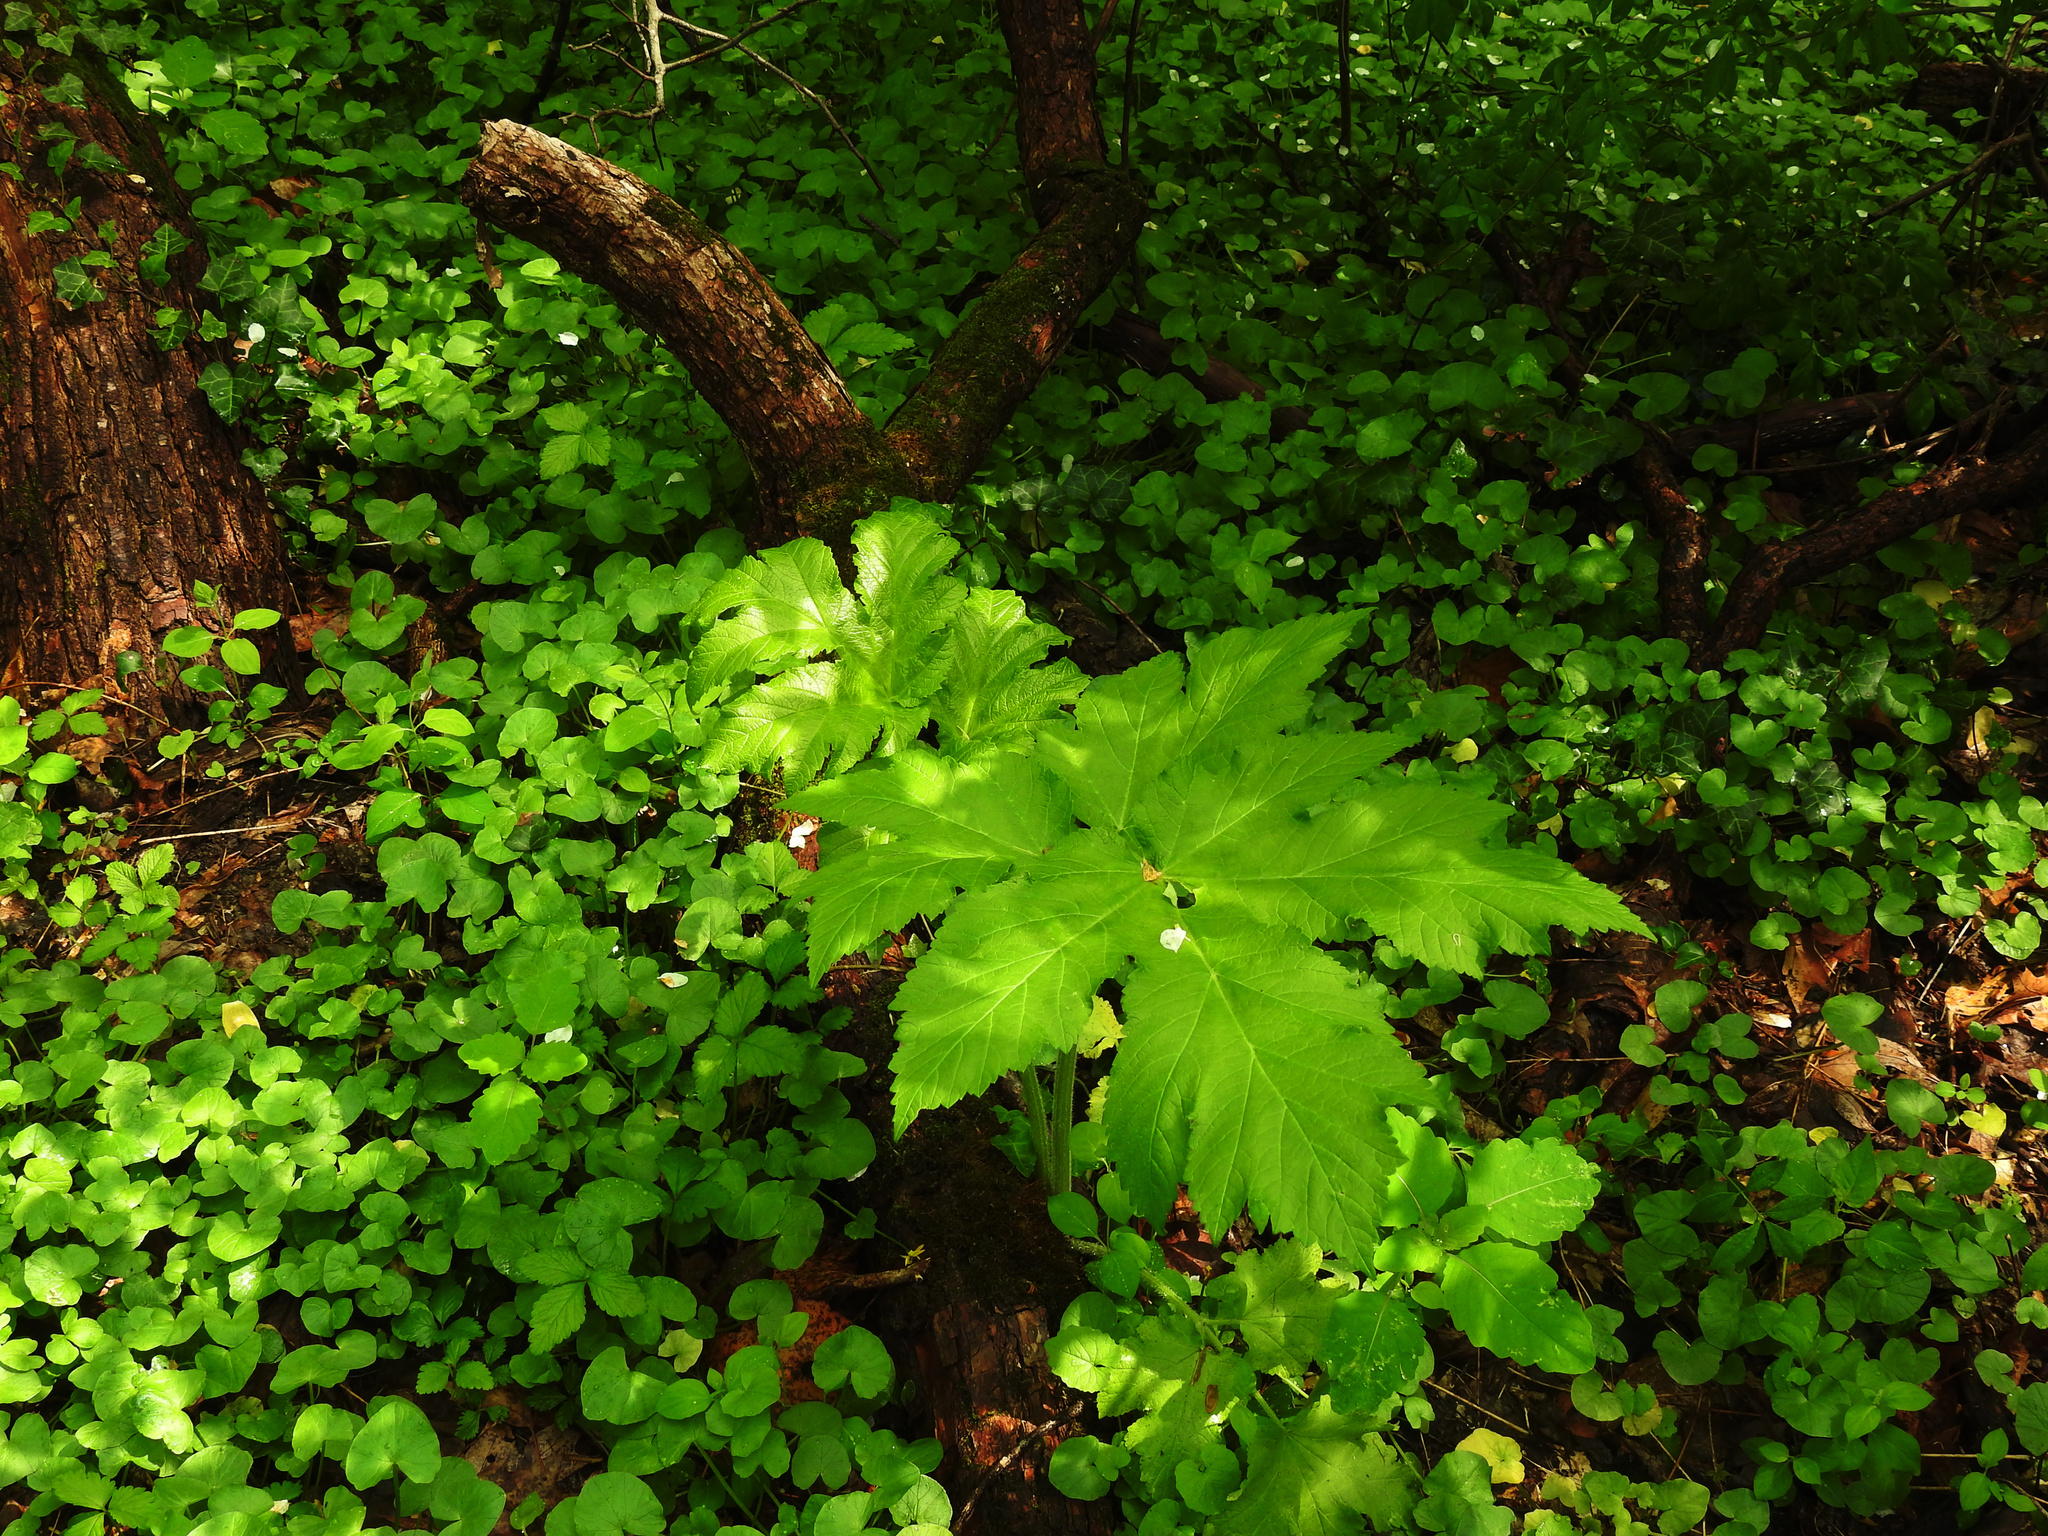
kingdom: Plantae
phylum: Tracheophyta
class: Magnoliopsida
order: Apiales
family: Apiaceae
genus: Heracleum
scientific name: Heracleum maximum
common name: American cow parsnip
